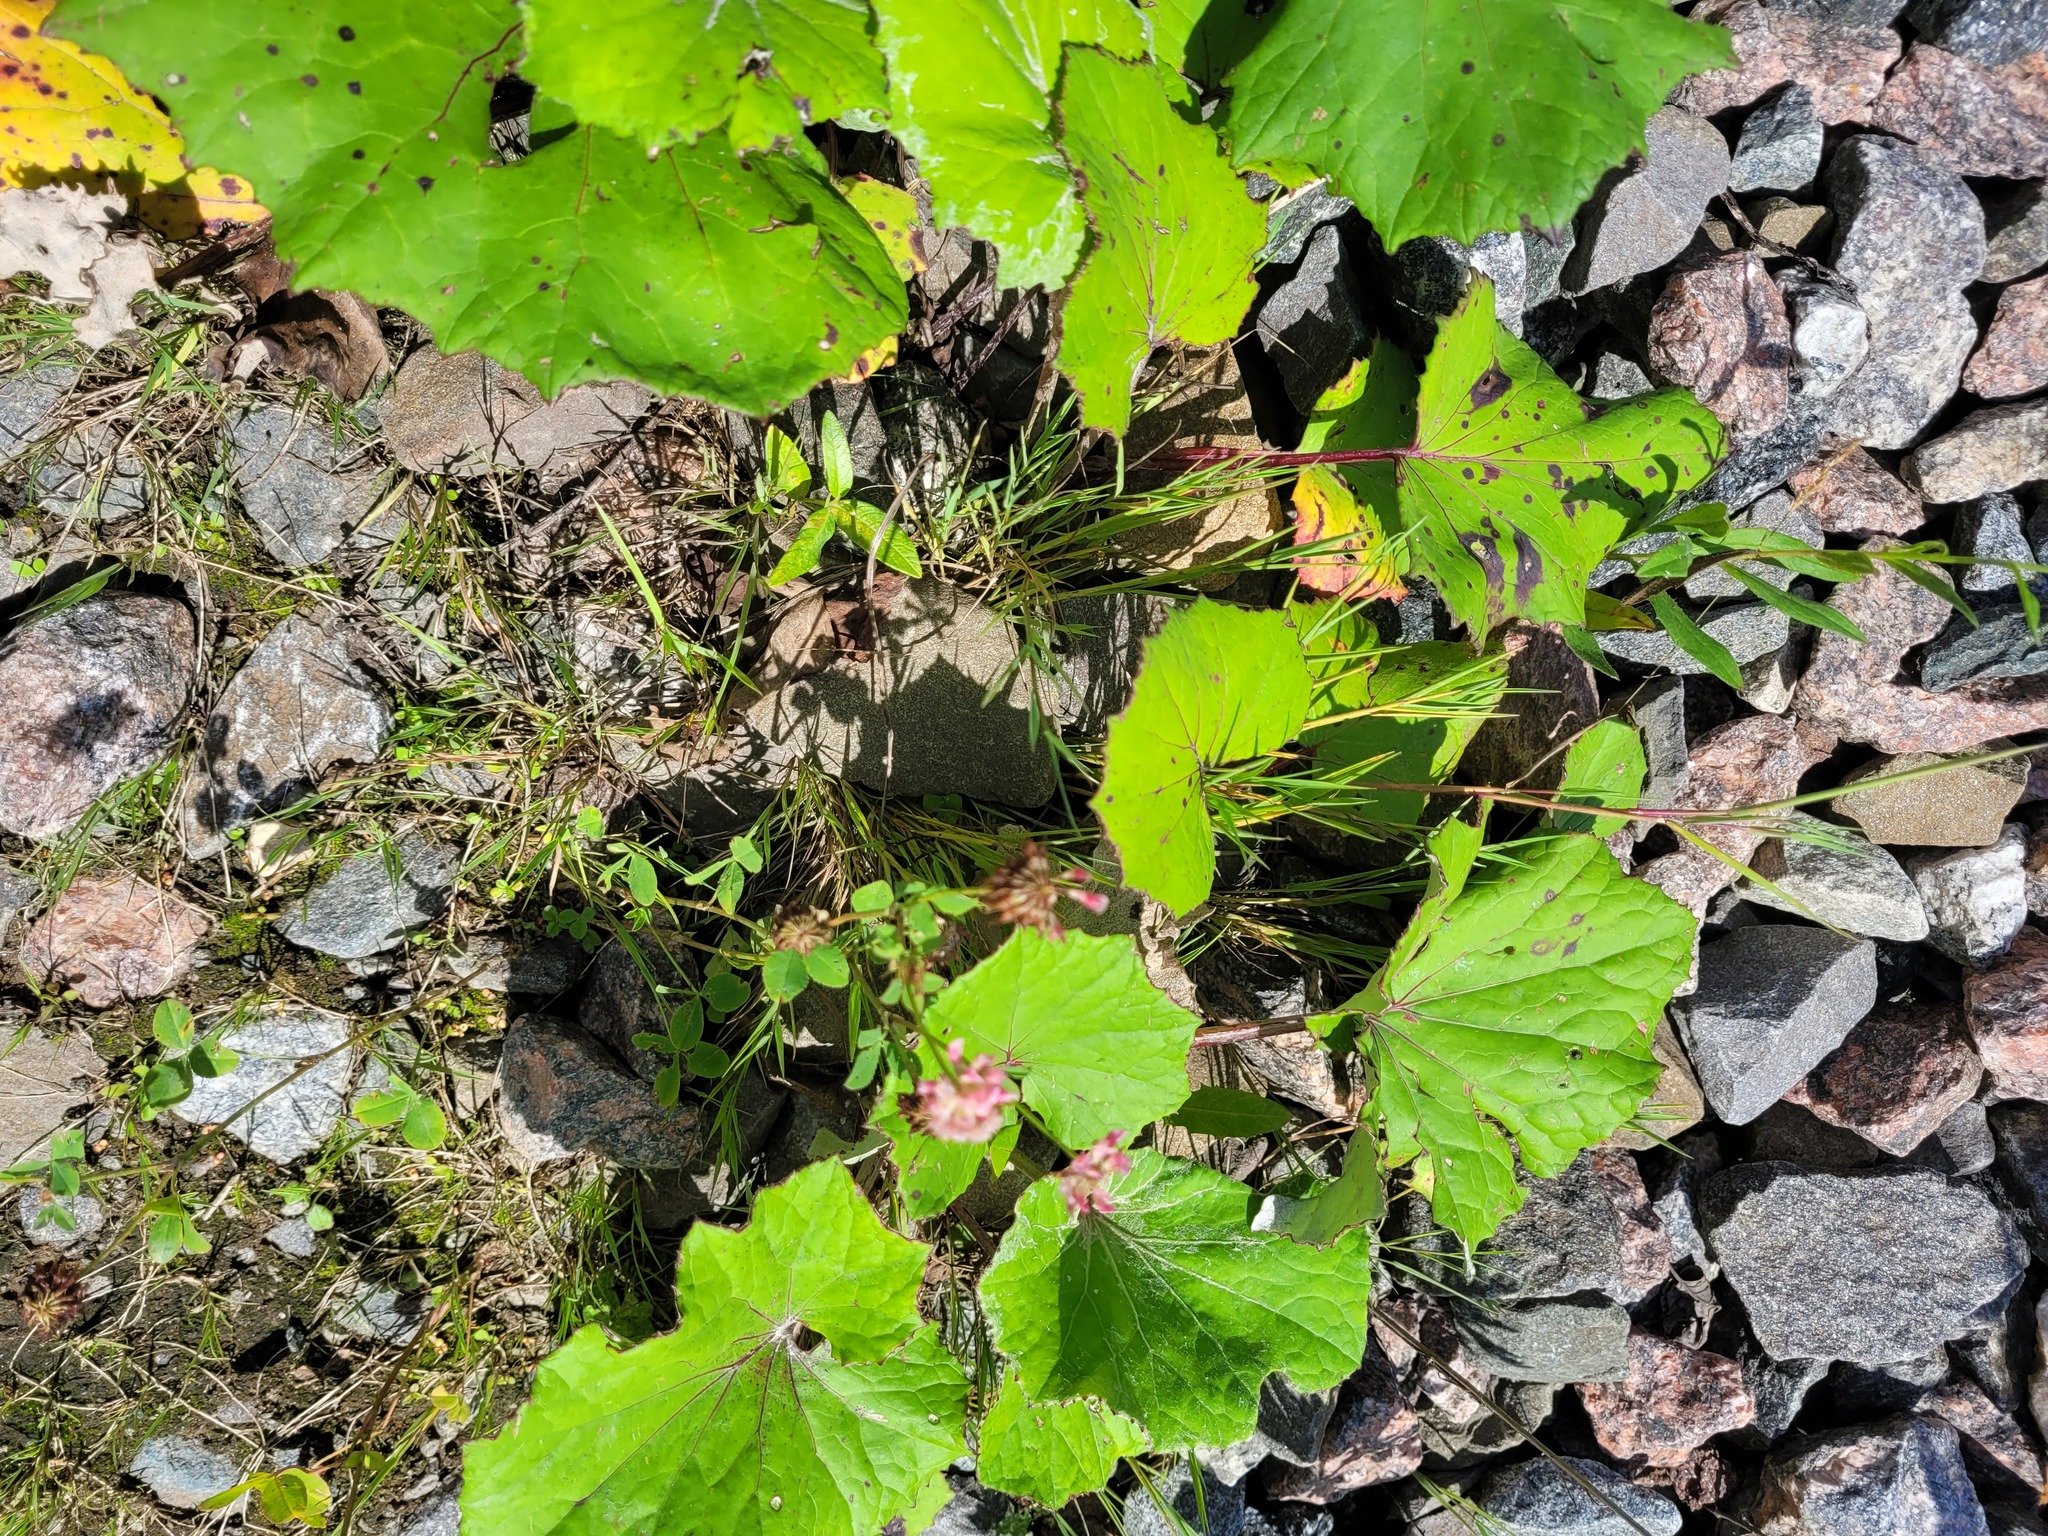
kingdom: Plantae
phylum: Tracheophyta
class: Magnoliopsida
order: Fabales
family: Fabaceae
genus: Trifolium
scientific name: Trifolium hybridum
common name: Alsike clover
